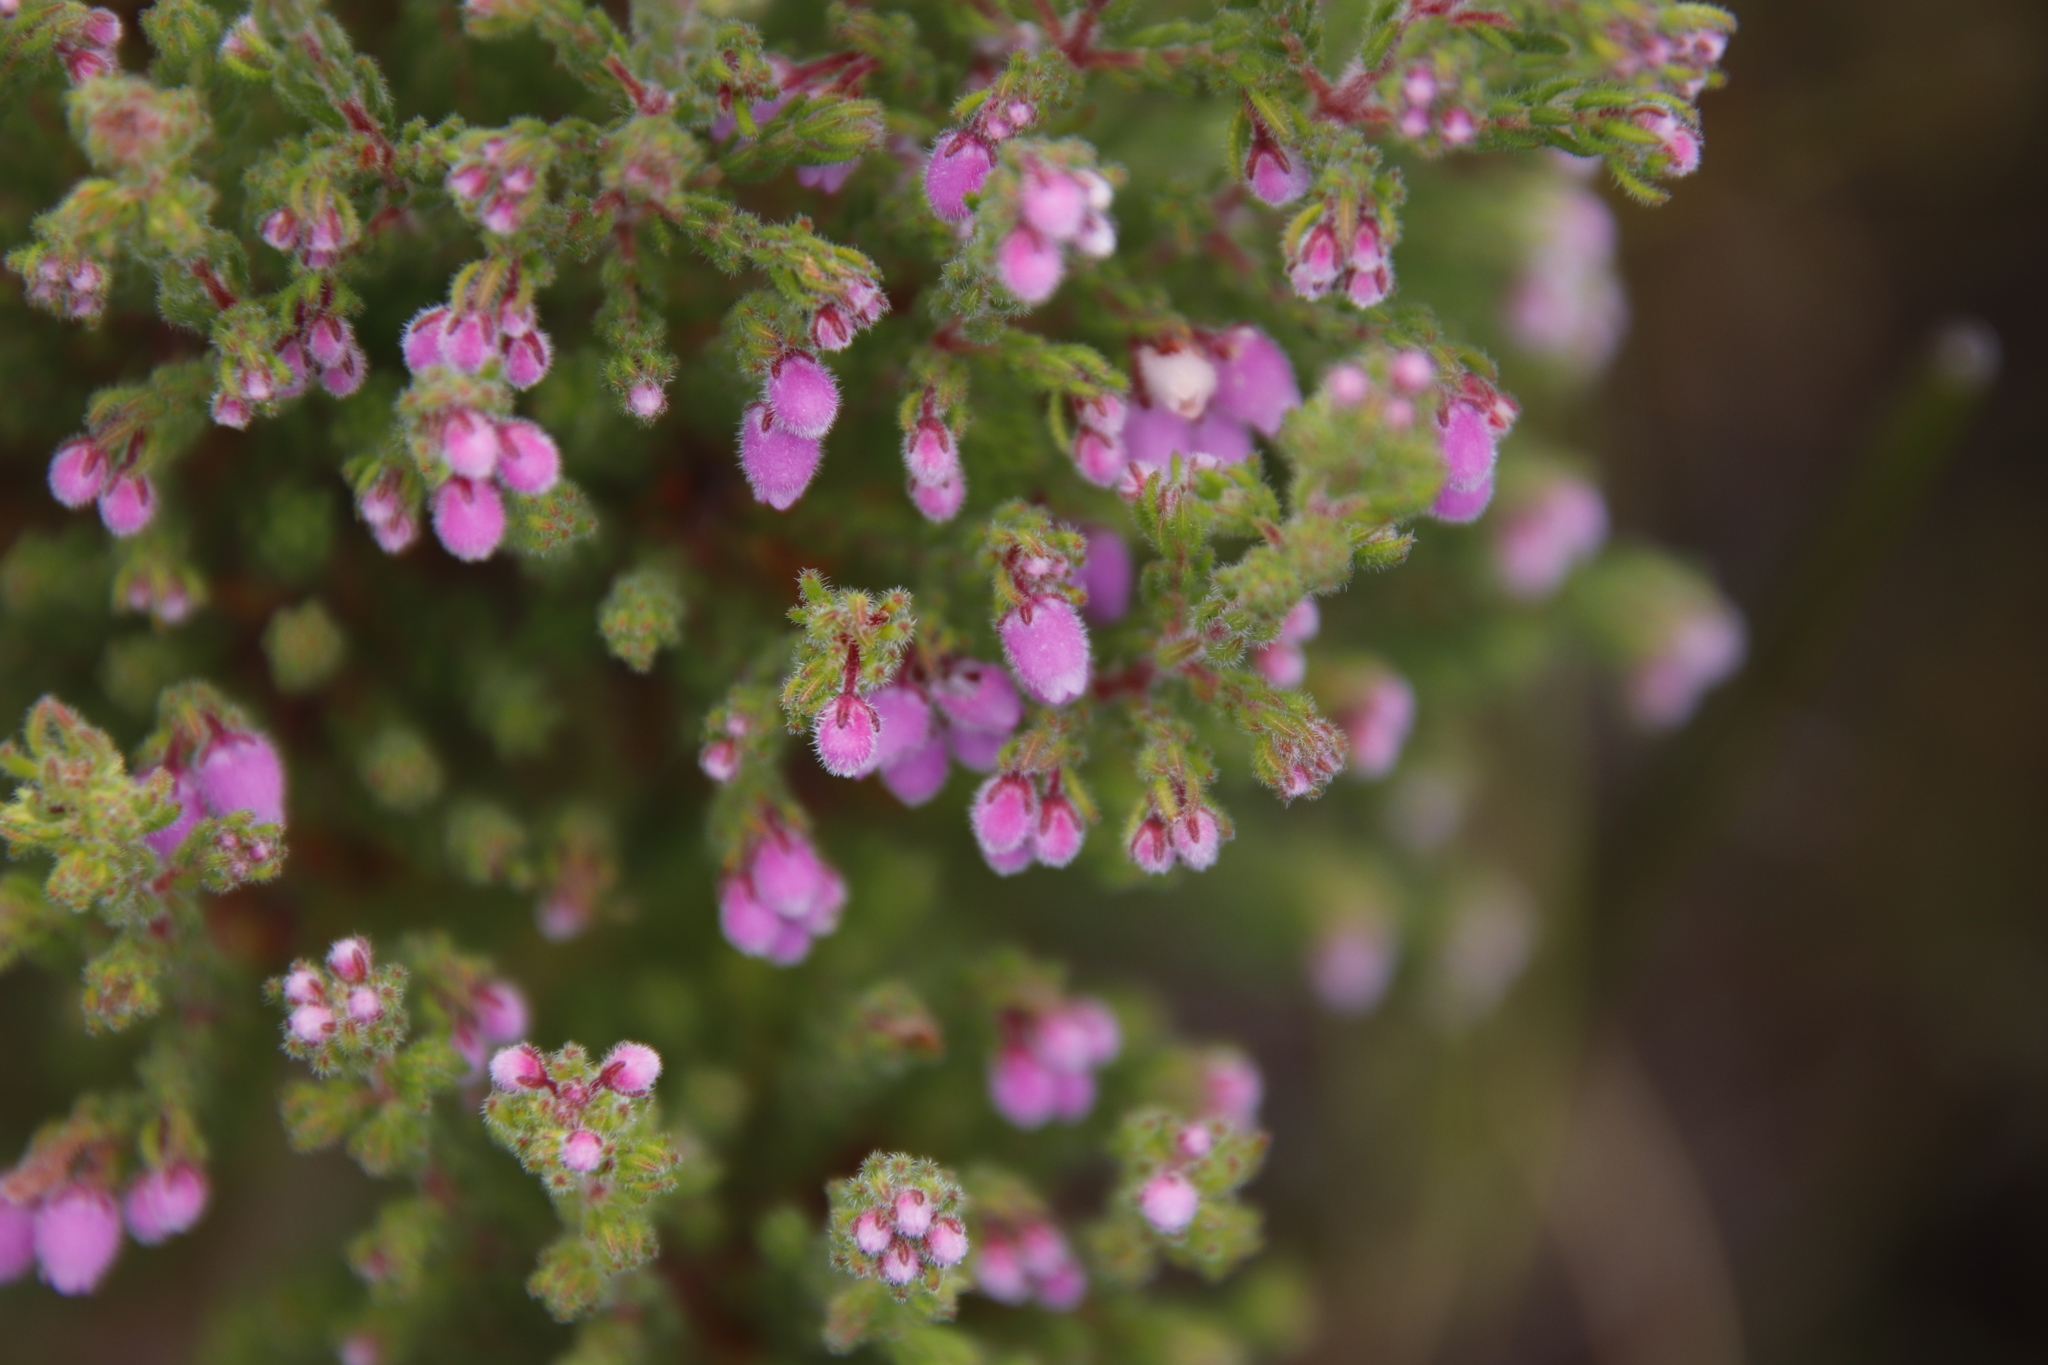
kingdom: Plantae
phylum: Tracheophyta
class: Magnoliopsida
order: Ericales
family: Ericaceae
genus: Erica
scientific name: Erica hirtiflora
